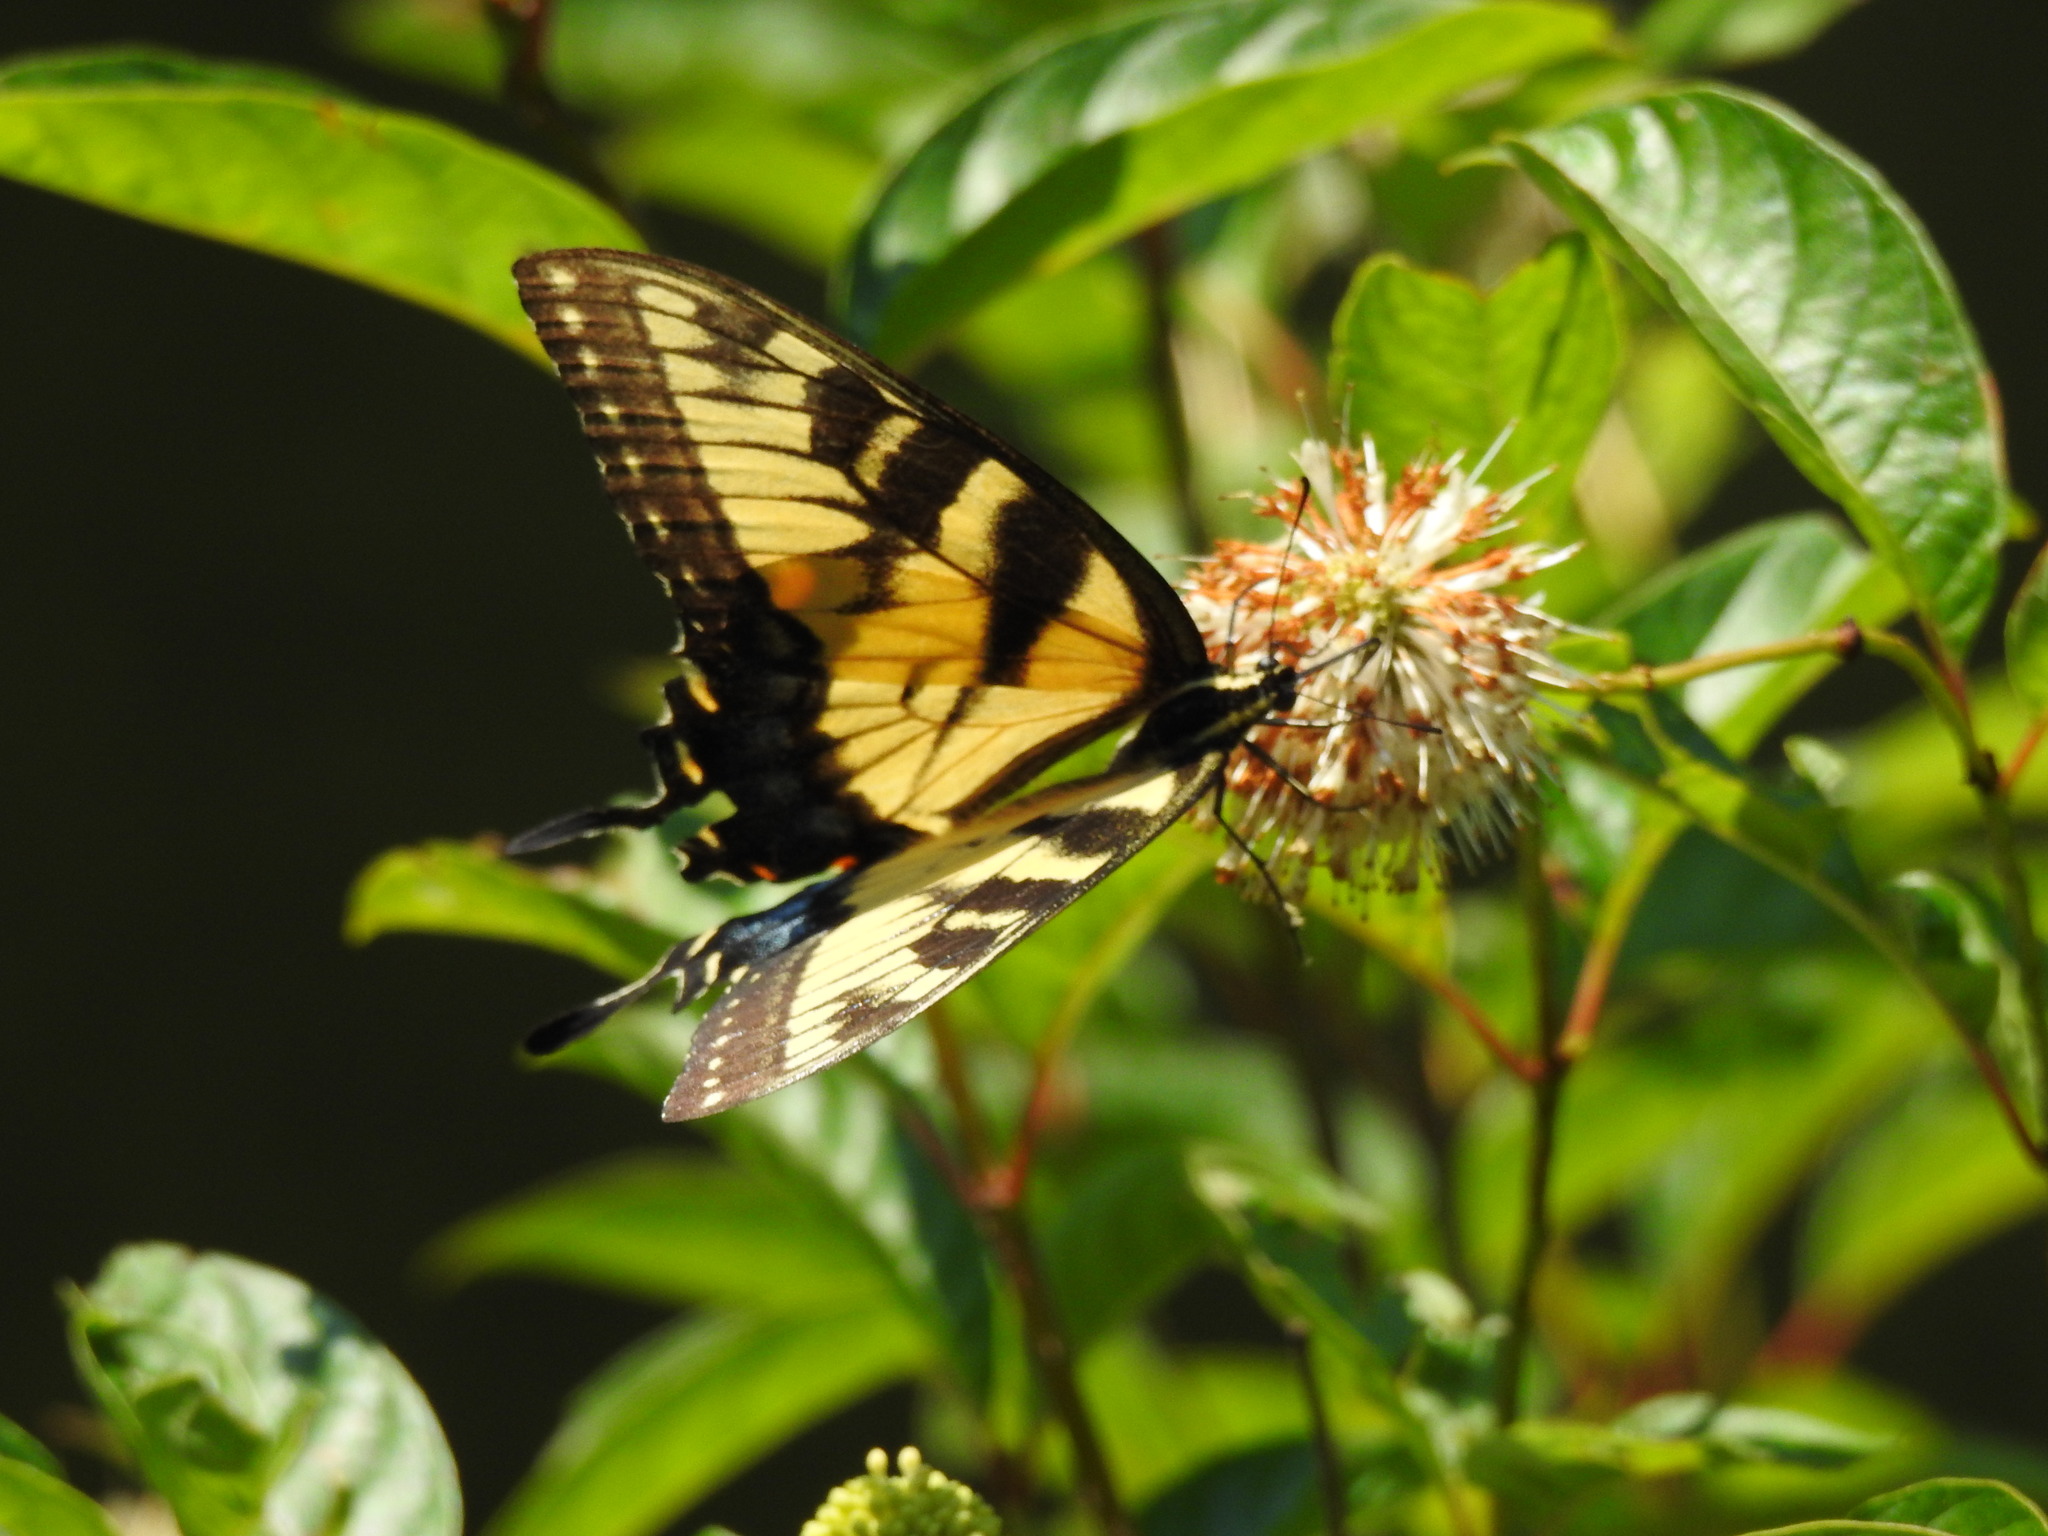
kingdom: Animalia
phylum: Arthropoda
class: Insecta
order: Lepidoptera
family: Papilionidae
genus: Papilio
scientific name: Papilio glaucus
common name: Tiger swallowtail
